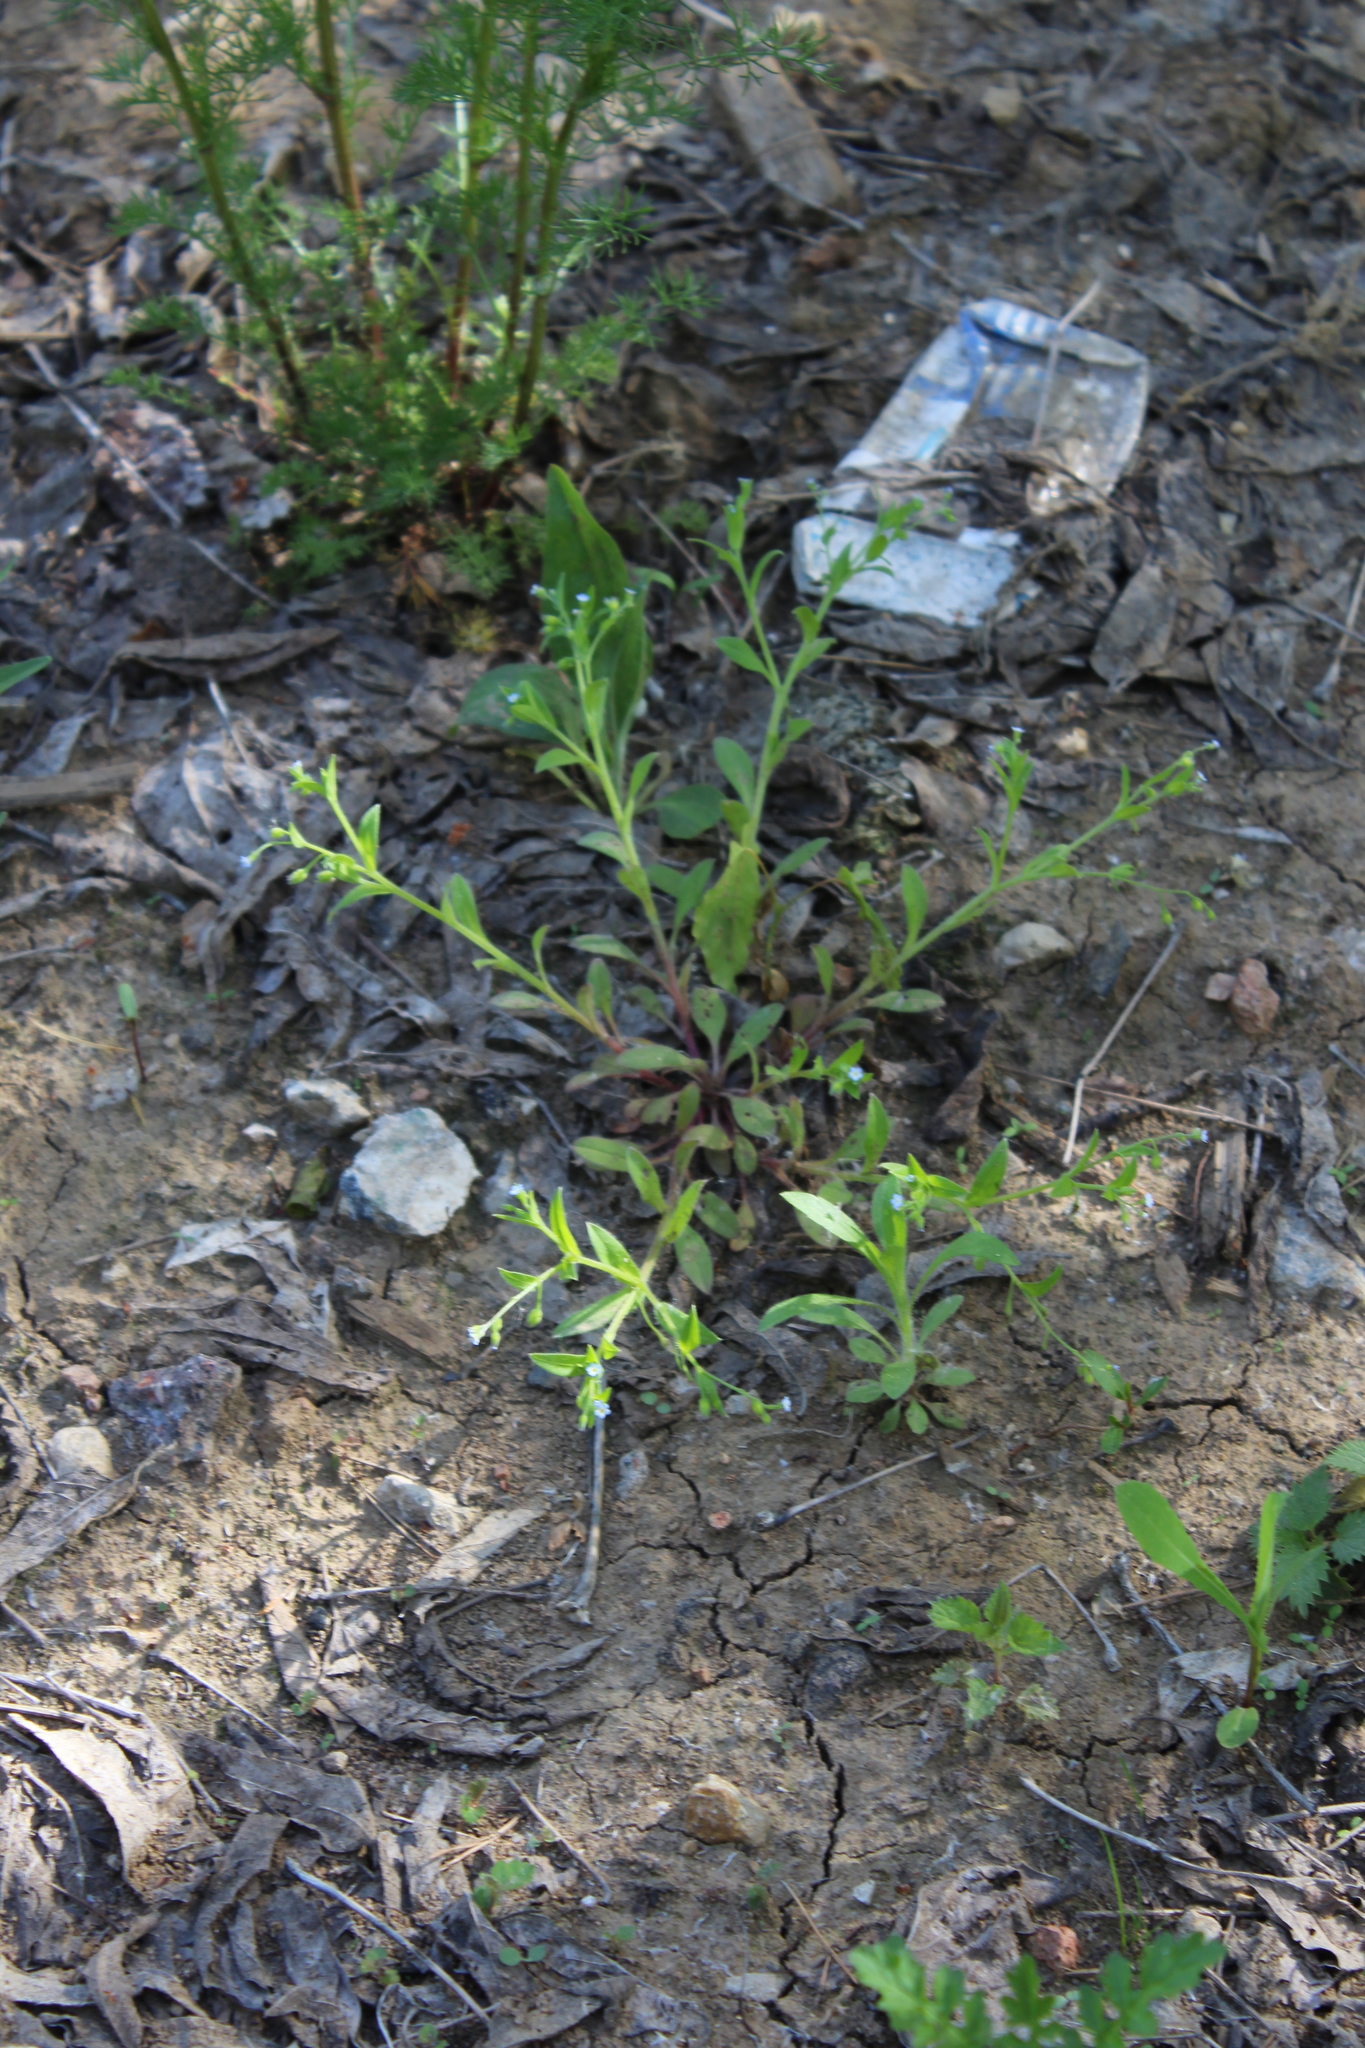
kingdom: Plantae
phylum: Tracheophyta
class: Magnoliopsida
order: Boraginales
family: Boraginaceae
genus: Myosotis
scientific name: Myosotis sparsiflora
